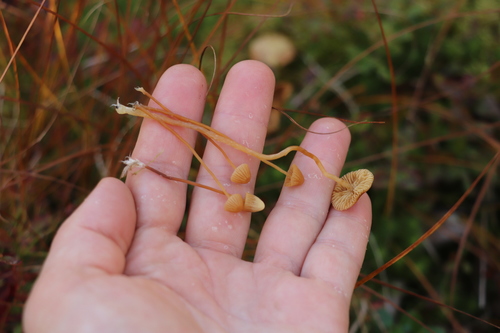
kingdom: Fungi
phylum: Basidiomycota
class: Agaricomycetes
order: Agaricales
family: Hymenogastraceae
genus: Galerina
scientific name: Galerina
